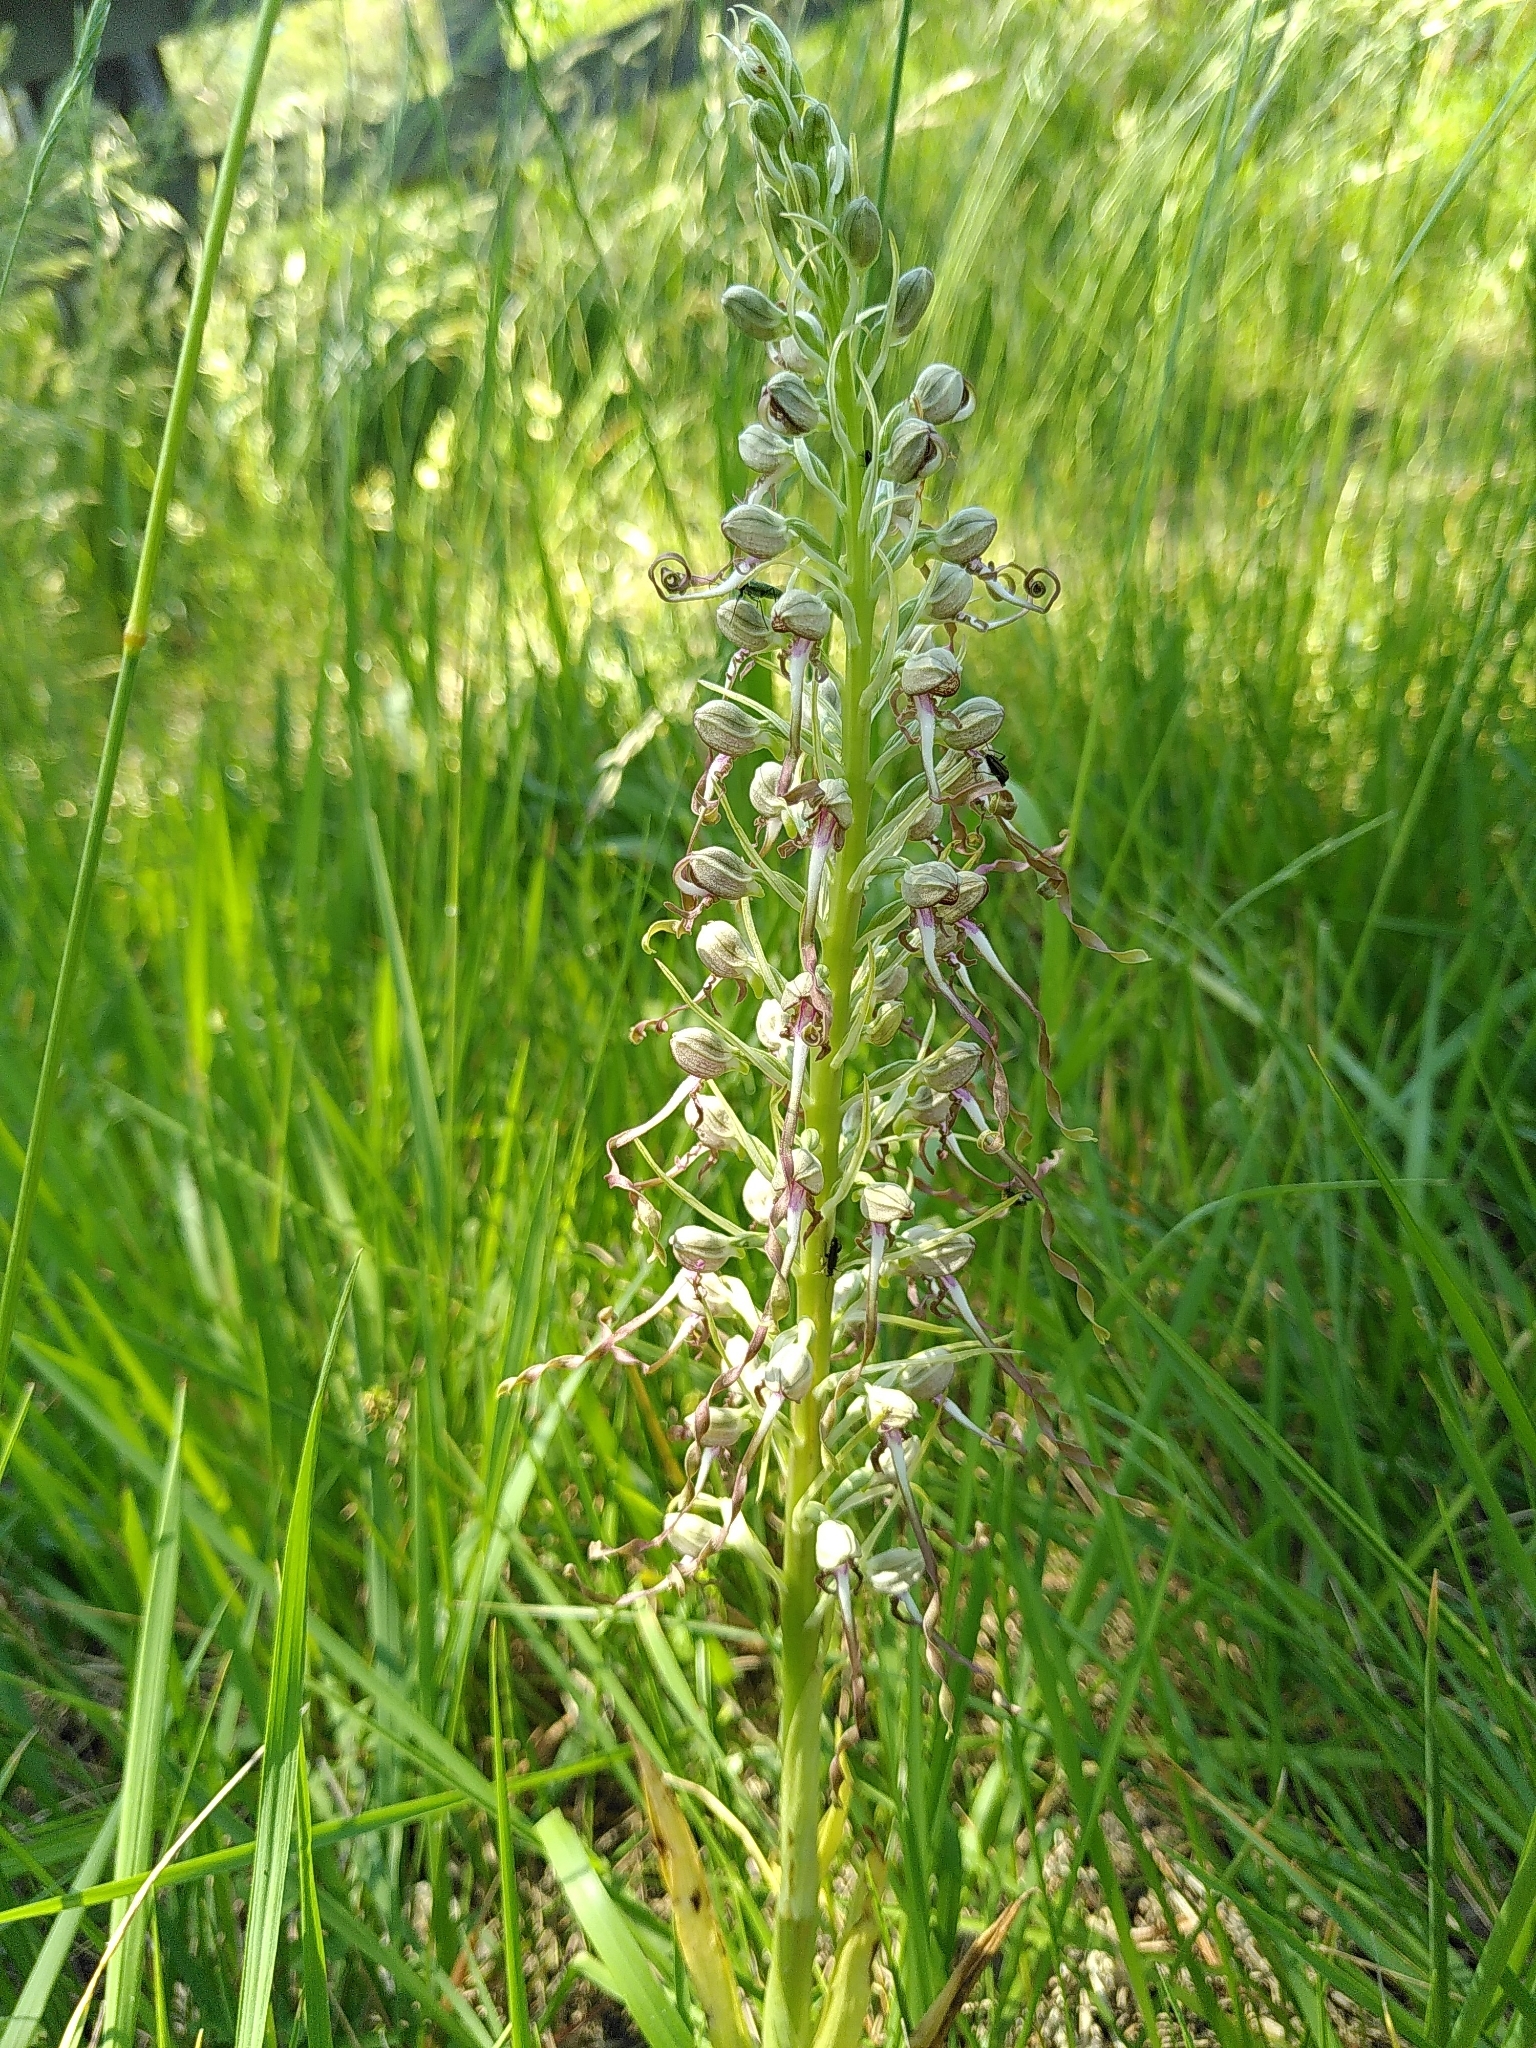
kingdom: Plantae
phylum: Tracheophyta
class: Liliopsida
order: Asparagales
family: Orchidaceae
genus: Himantoglossum
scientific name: Himantoglossum hircinum
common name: Lizard orchid
